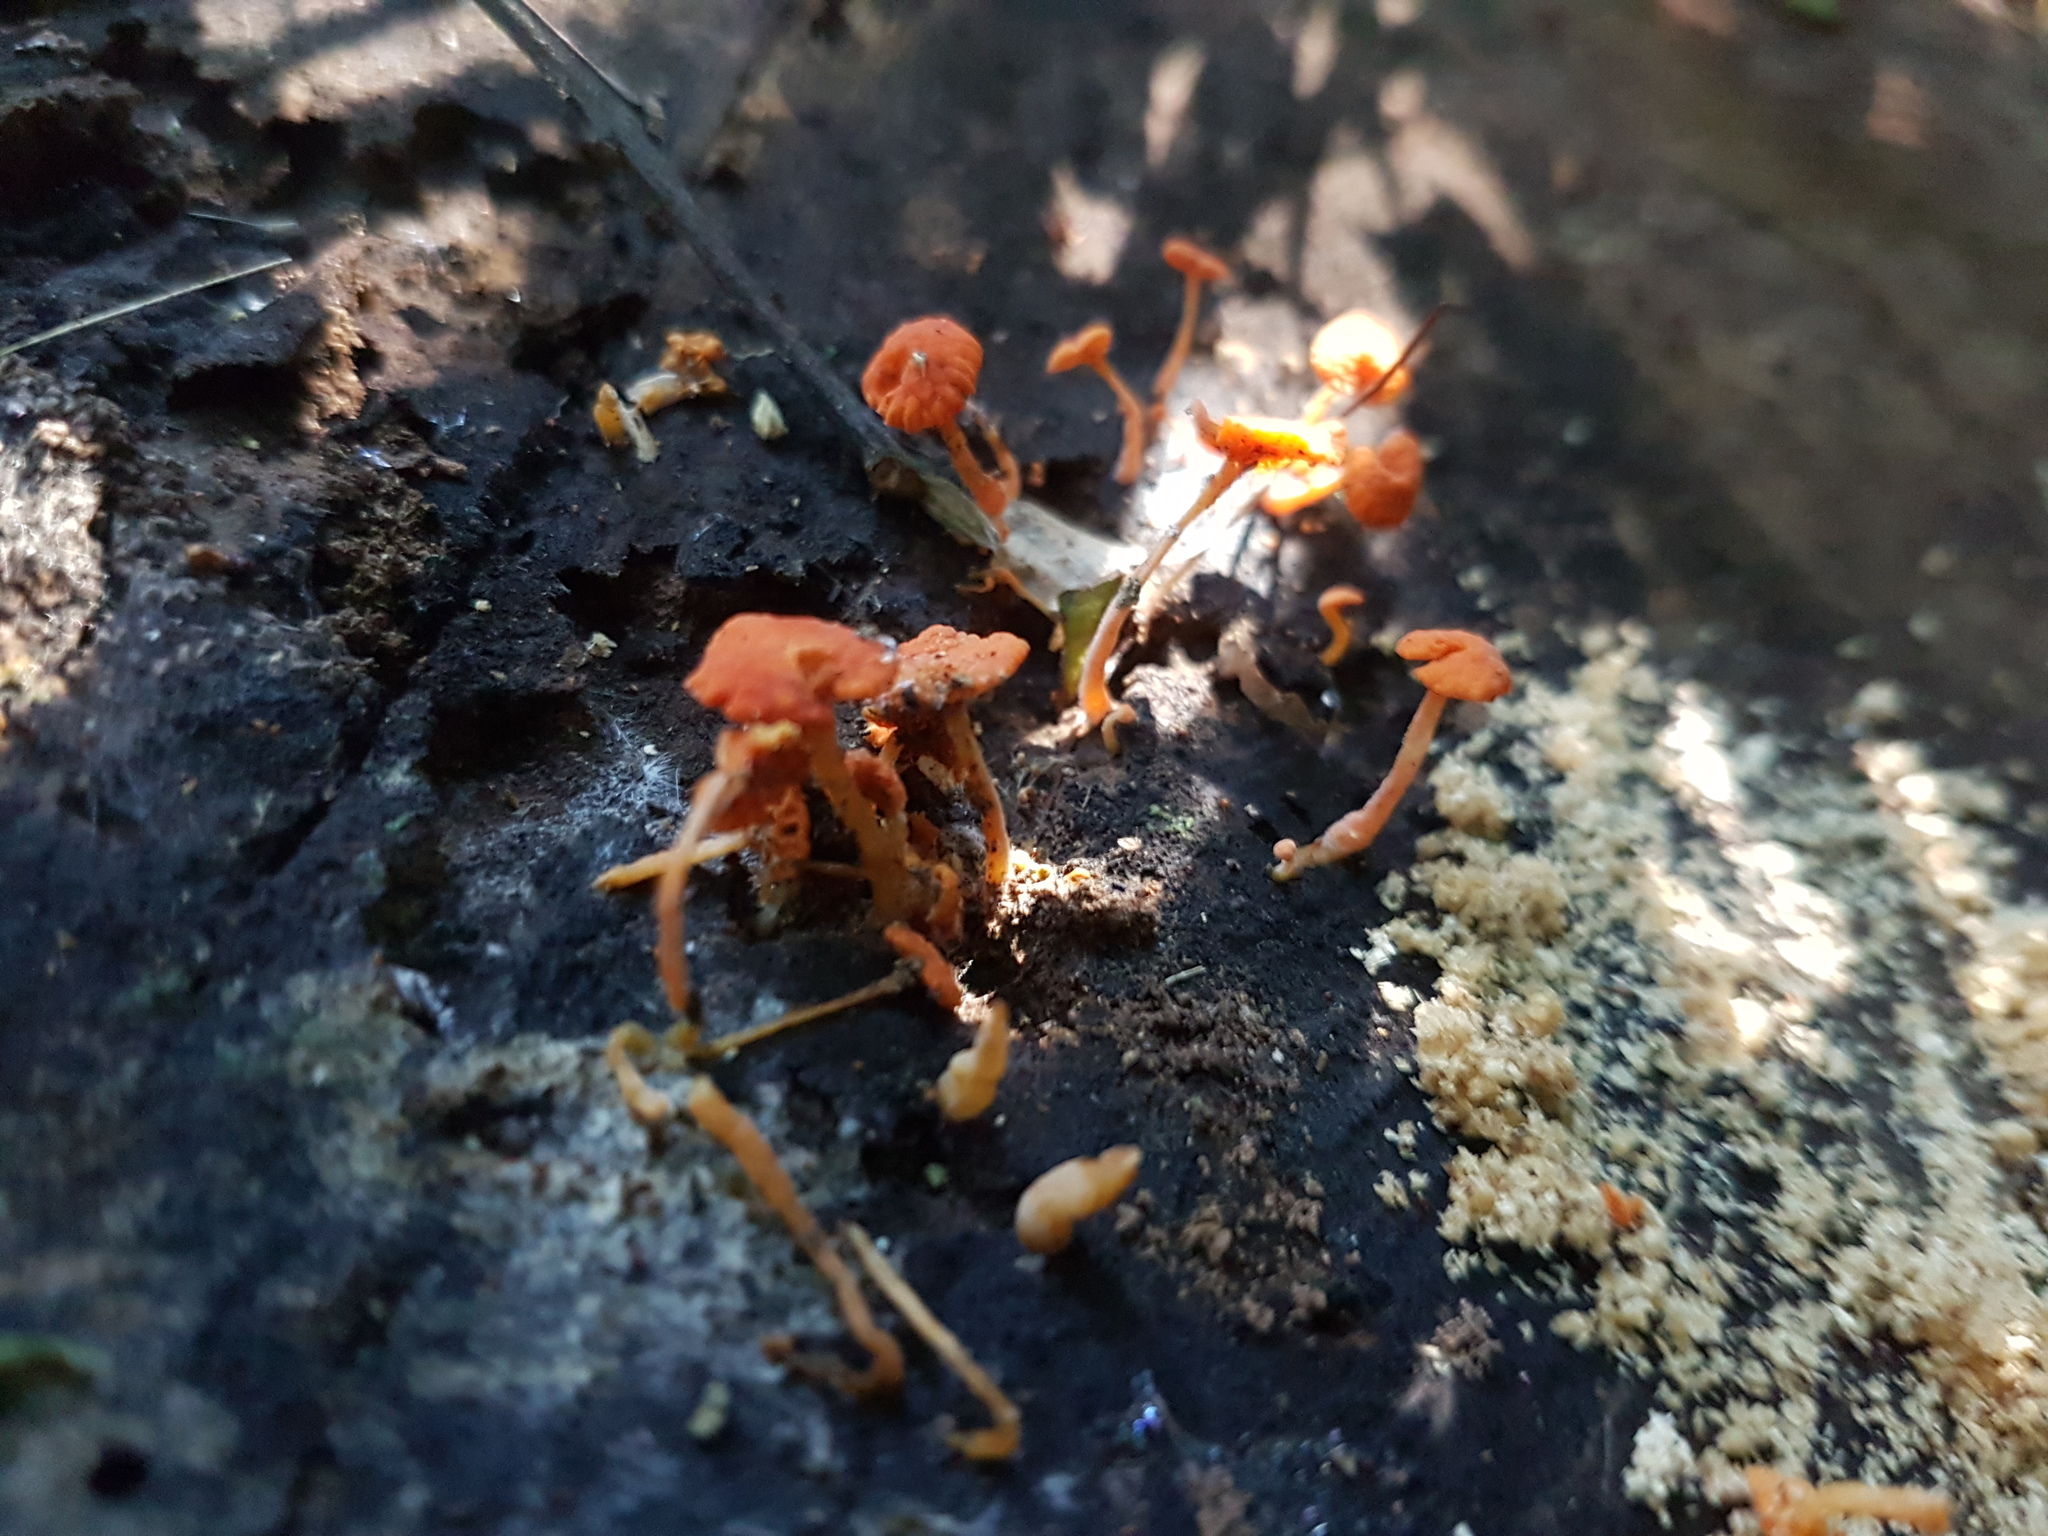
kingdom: Fungi
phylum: Basidiomycota
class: Agaricomycetes
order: Agaricales
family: Mycenaceae
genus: Favolaschia
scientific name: Favolaschia claudopus
